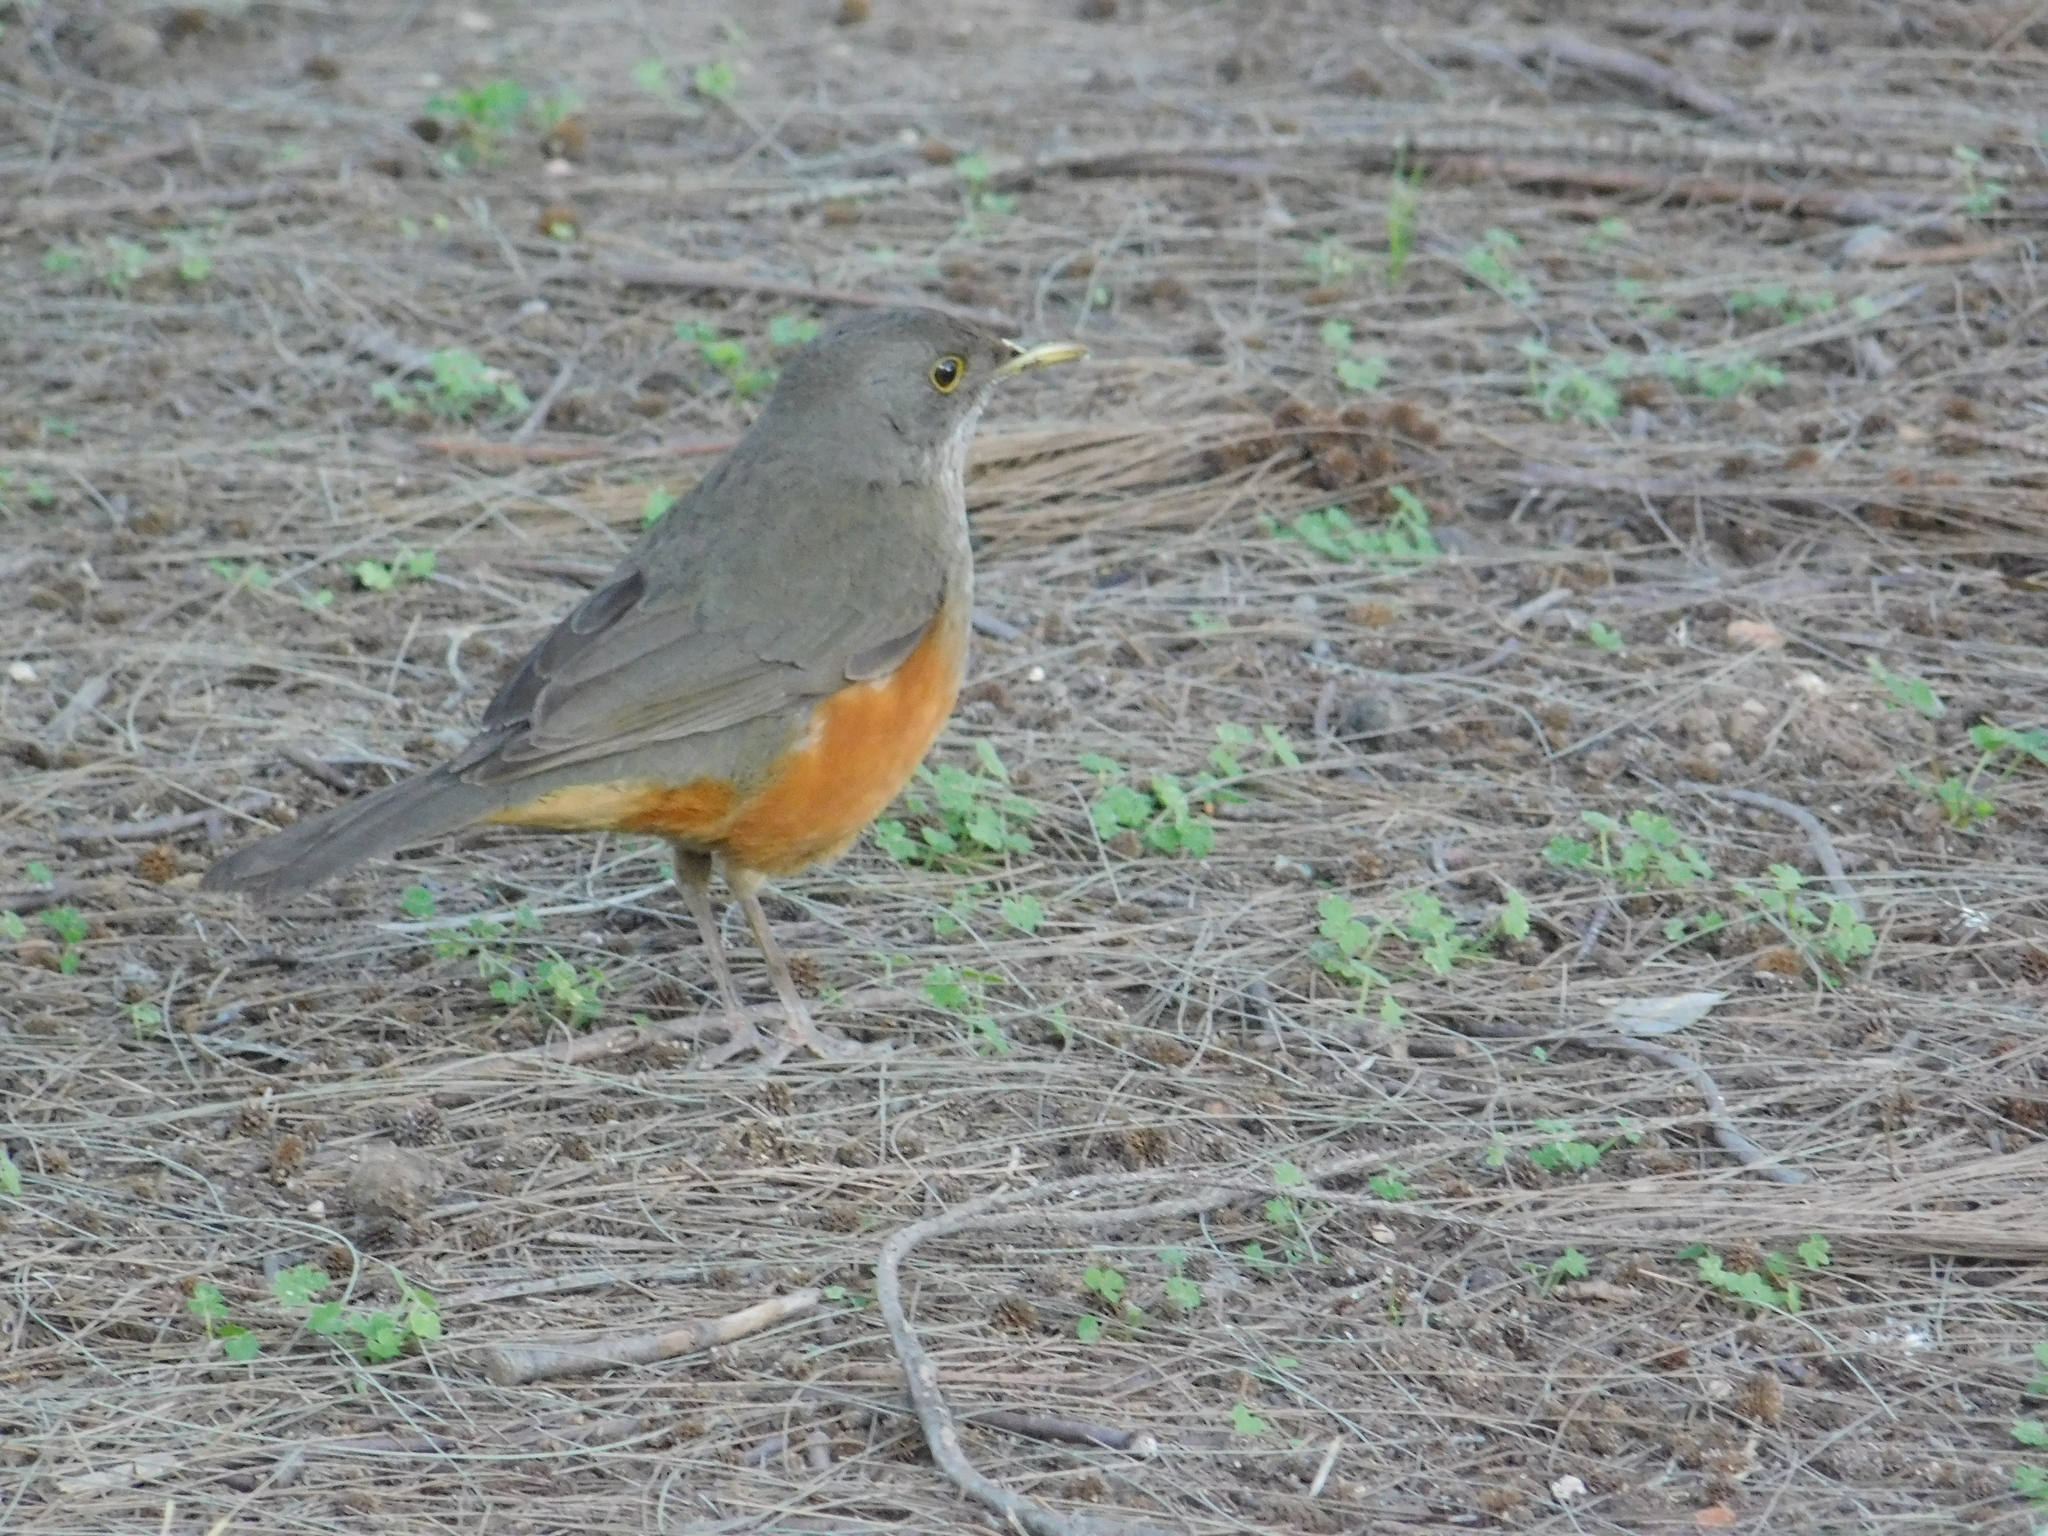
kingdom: Animalia
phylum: Chordata
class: Aves
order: Passeriformes
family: Turdidae
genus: Turdus
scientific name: Turdus rufiventris
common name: Rufous-bellied thrush
